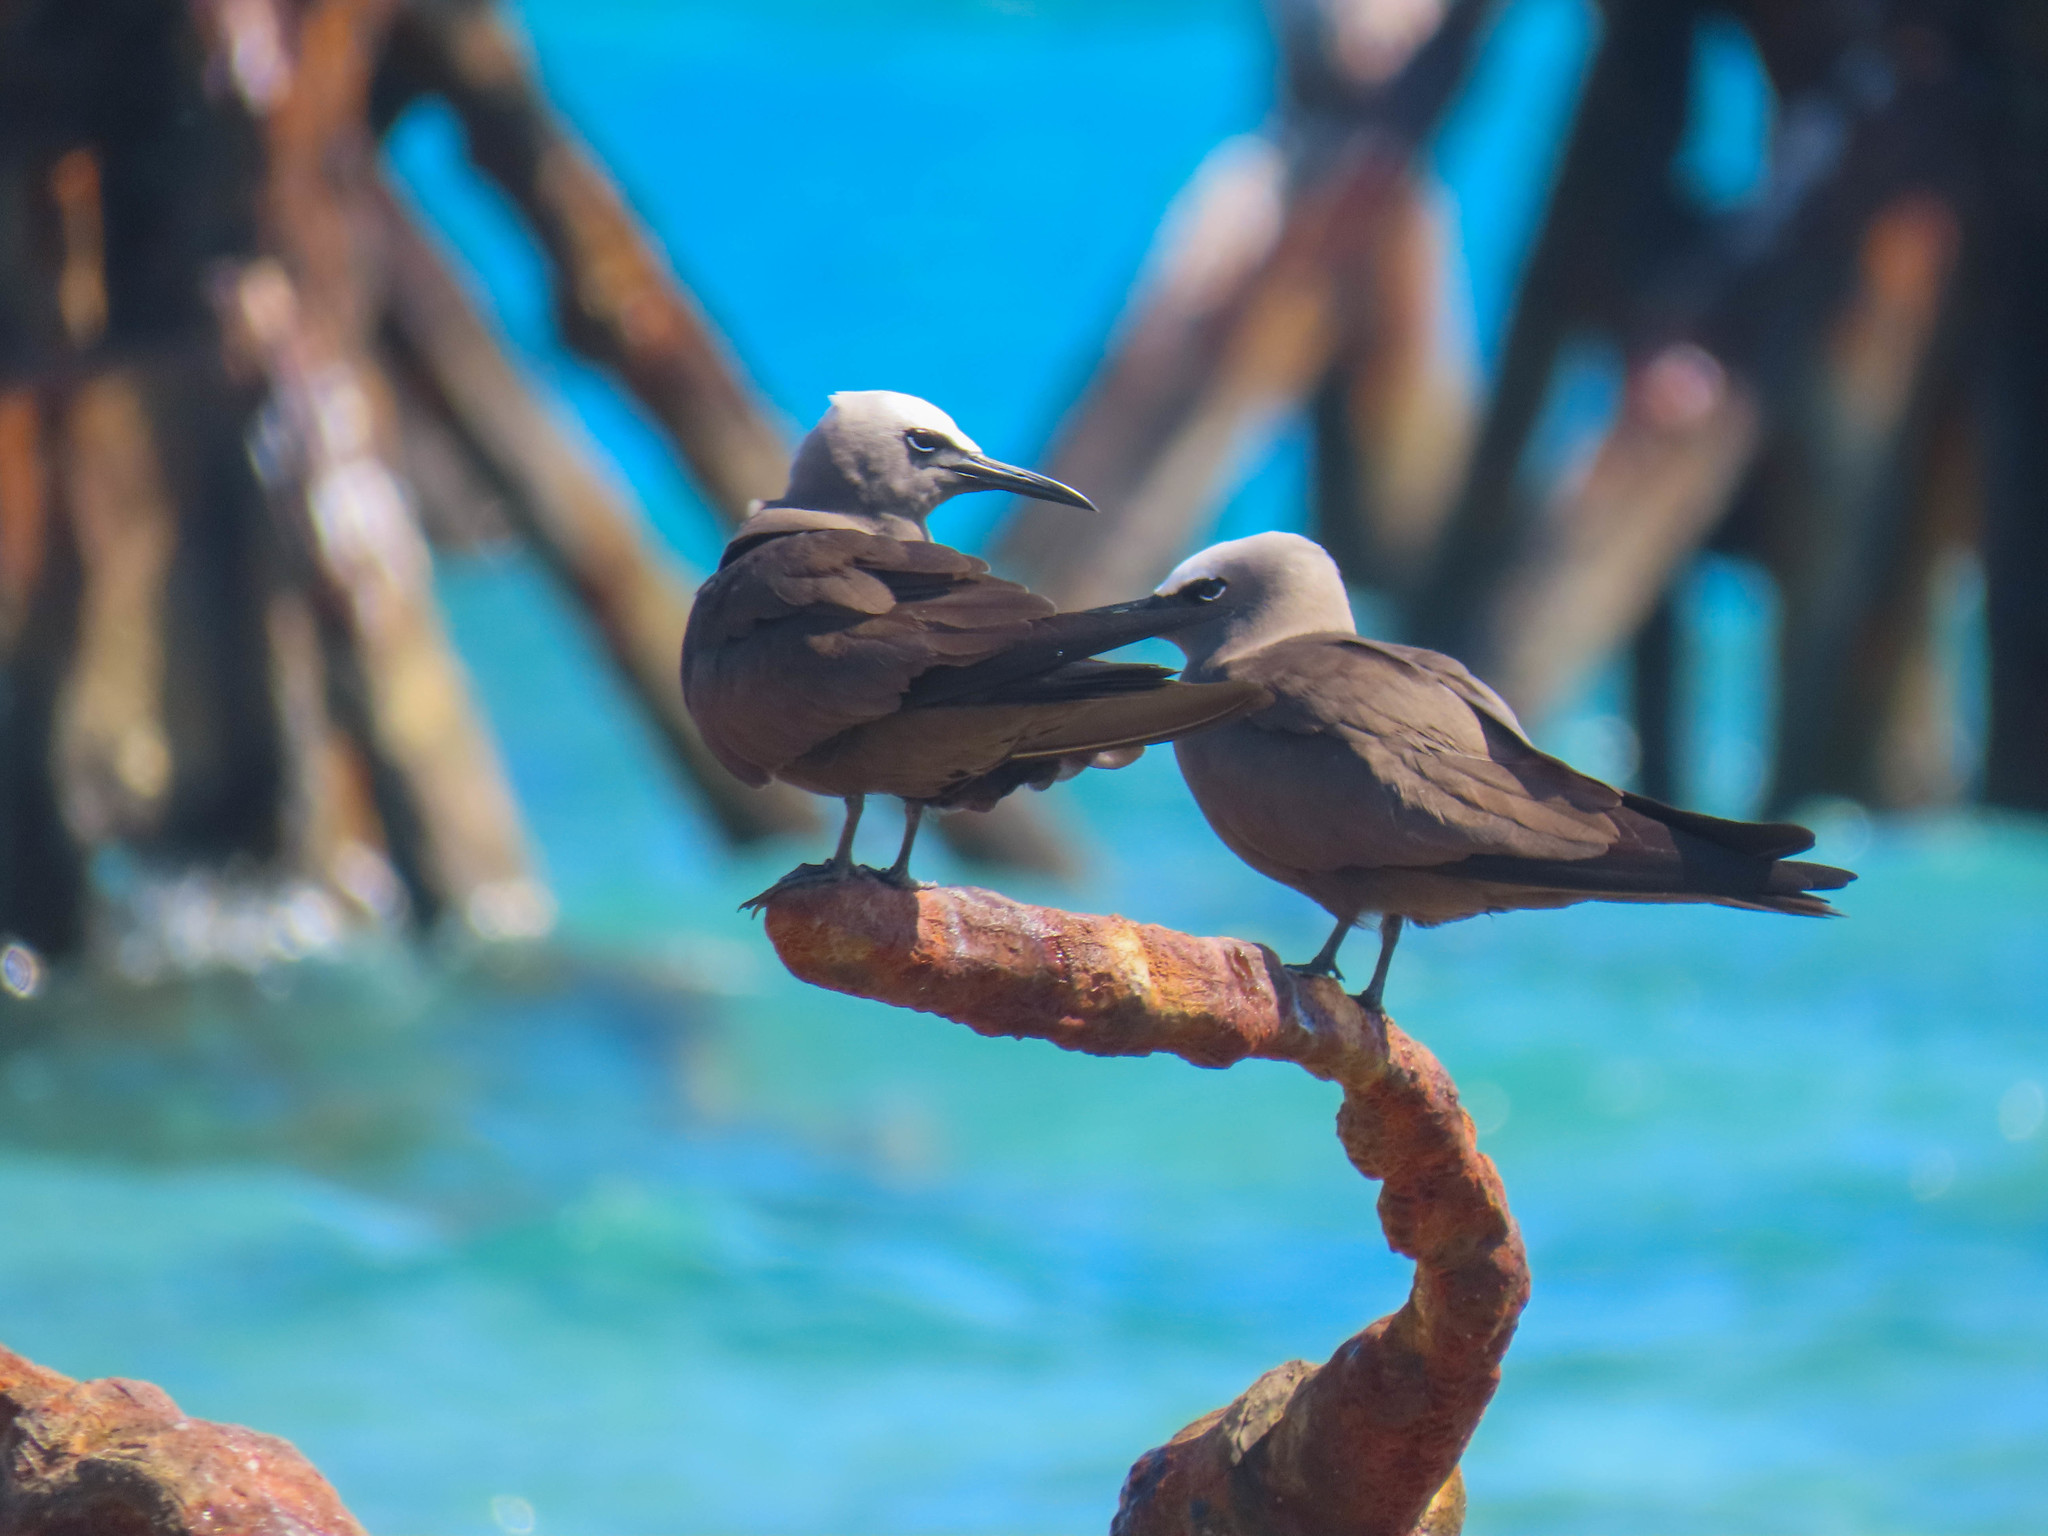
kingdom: Animalia
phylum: Chordata
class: Aves
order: Charadriiformes
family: Laridae
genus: Anous
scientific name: Anous stolidus
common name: Brown noddy
